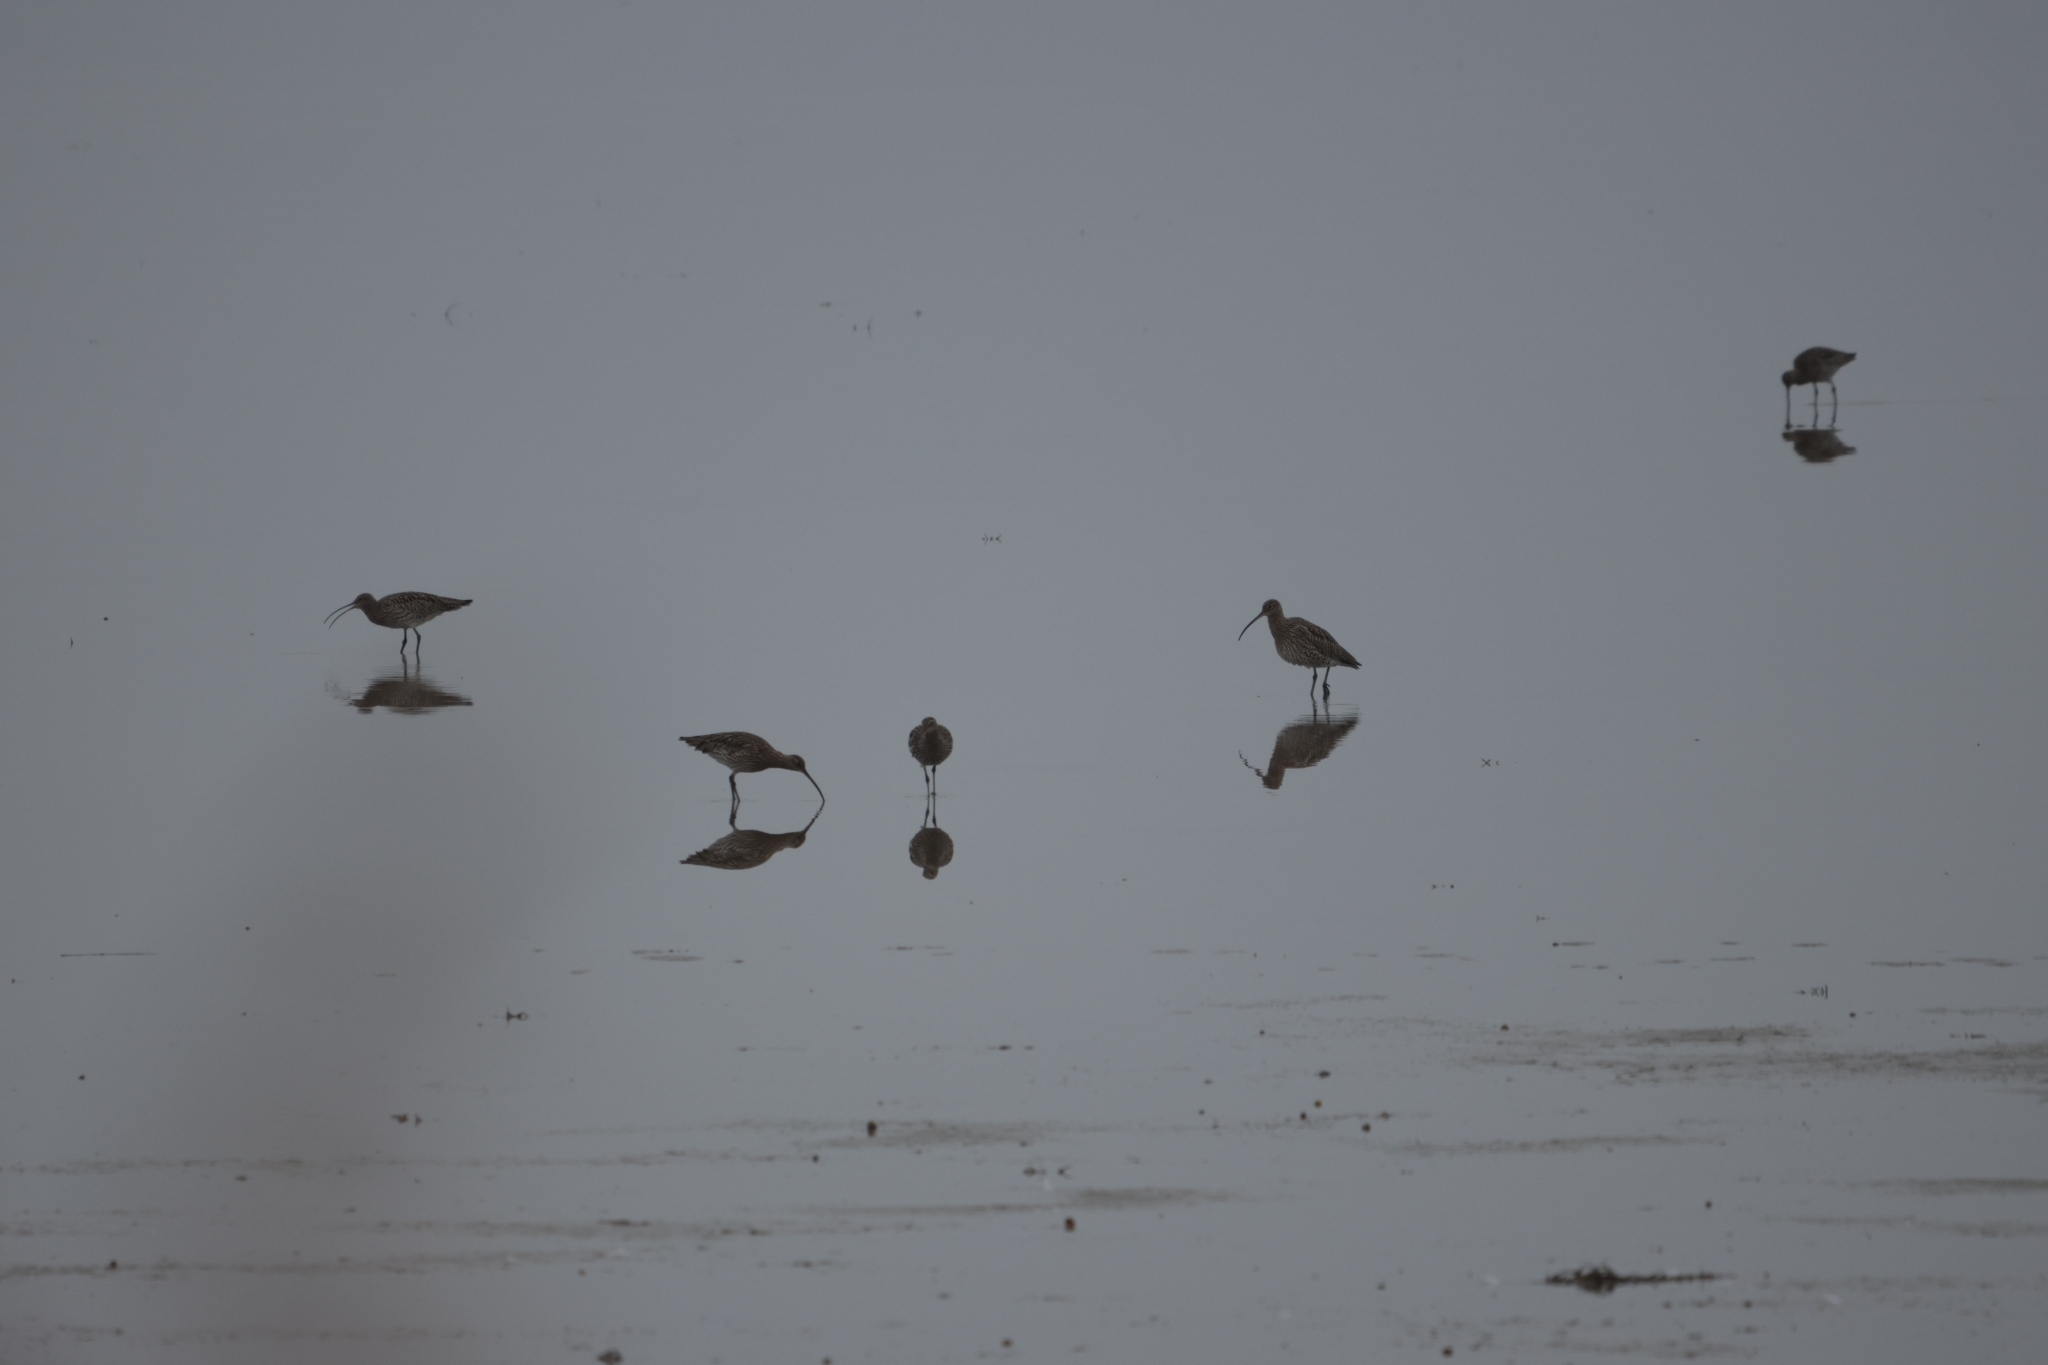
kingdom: Animalia
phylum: Chordata
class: Aves
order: Charadriiformes
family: Scolopacidae
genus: Numenius
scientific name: Numenius arquata
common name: Eurasian curlew
